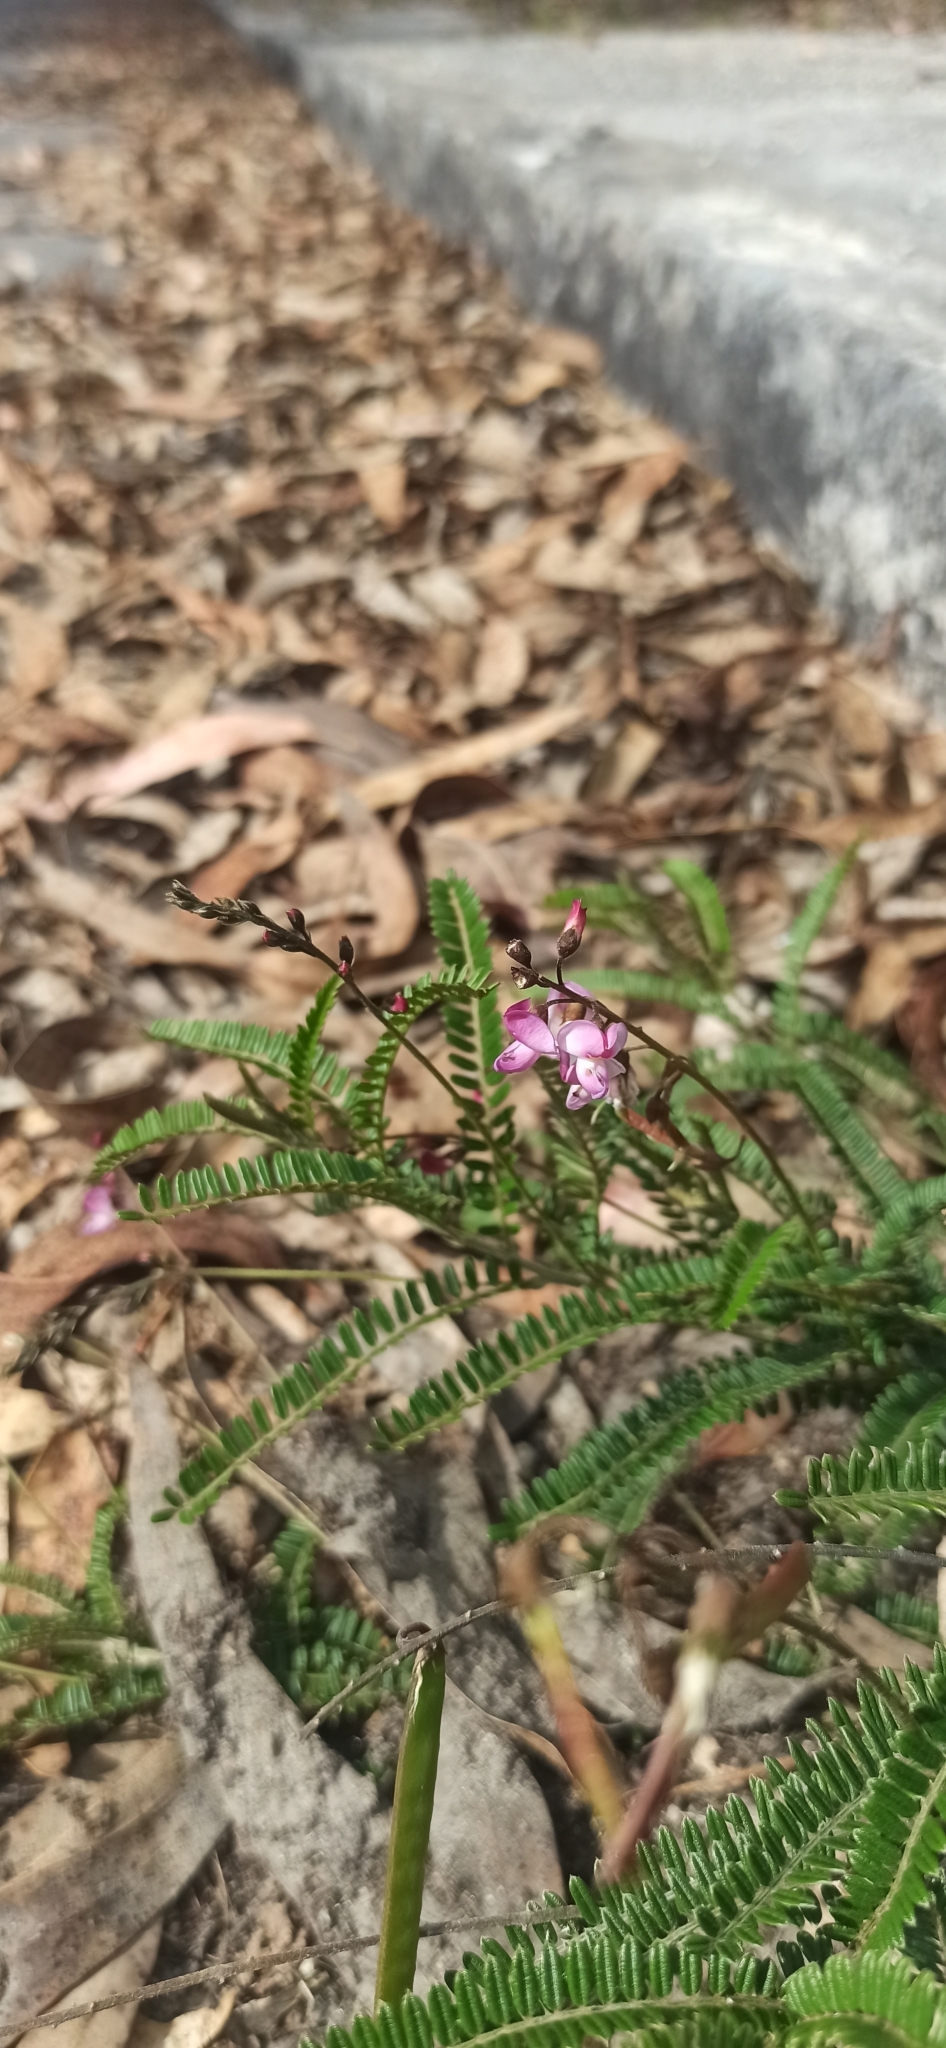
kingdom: Plantae
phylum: Tracheophyta
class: Magnoliopsida
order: Fabales
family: Fabaceae
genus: Coursetia
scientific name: Coursetia dubia
